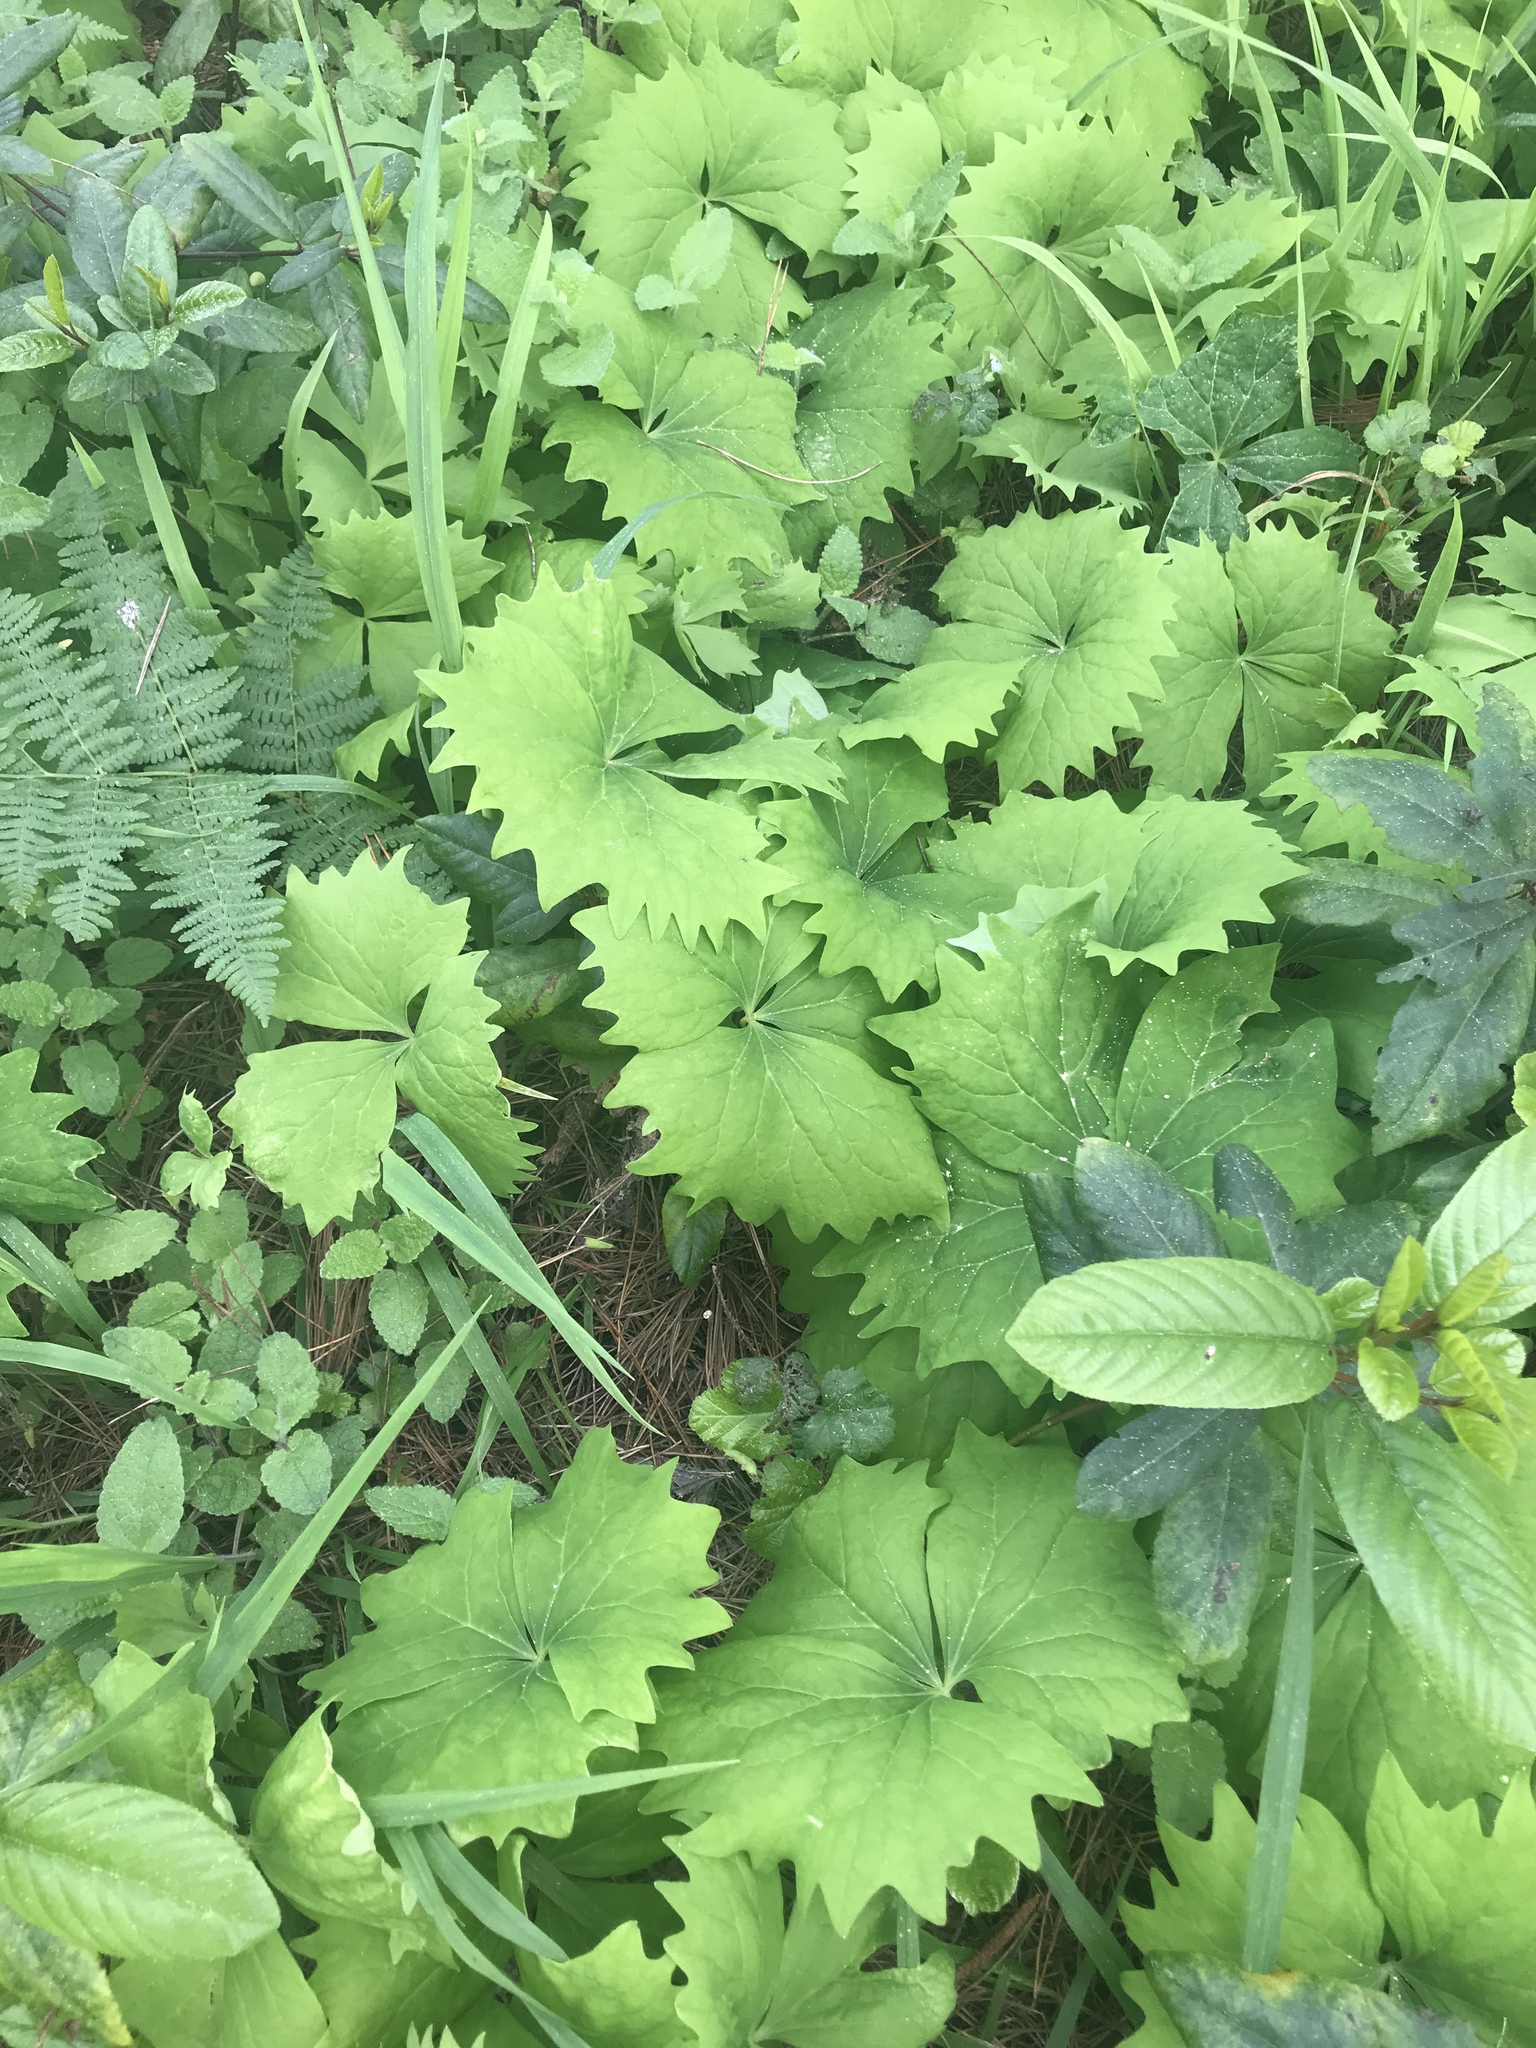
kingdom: Plantae
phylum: Tracheophyta
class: Magnoliopsida
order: Ranunculales
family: Berberidaceae
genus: Achlys
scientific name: Achlys triphylla
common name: Vanilla-leaf
